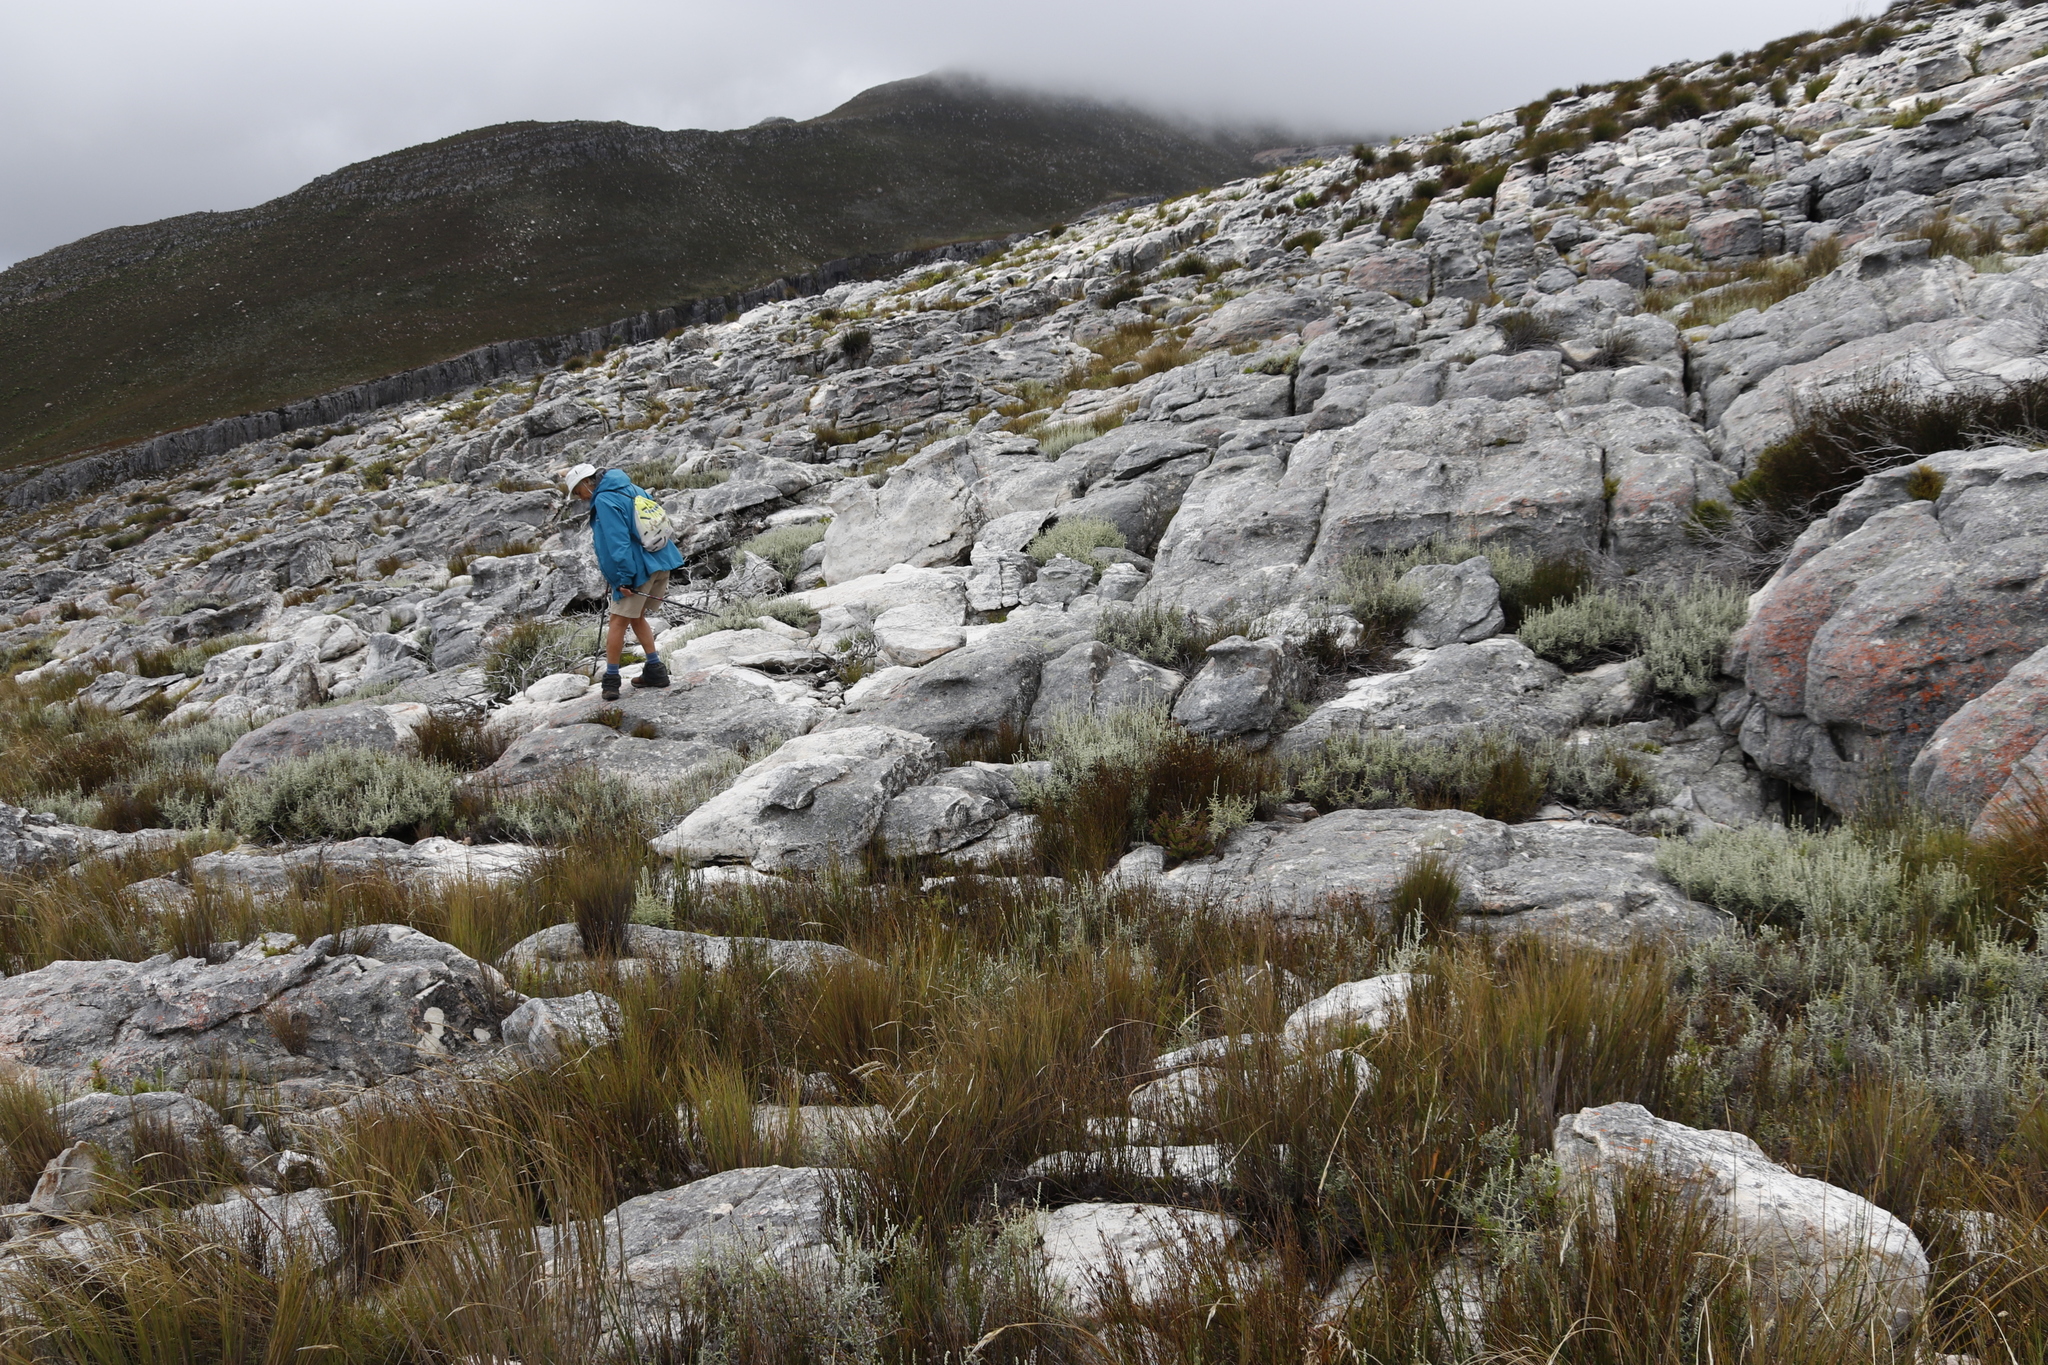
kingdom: Plantae
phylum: Tracheophyta
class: Magnoliopsida
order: Asterales
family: Asteraceae
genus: Seriphium
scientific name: Seriphium plumosum
